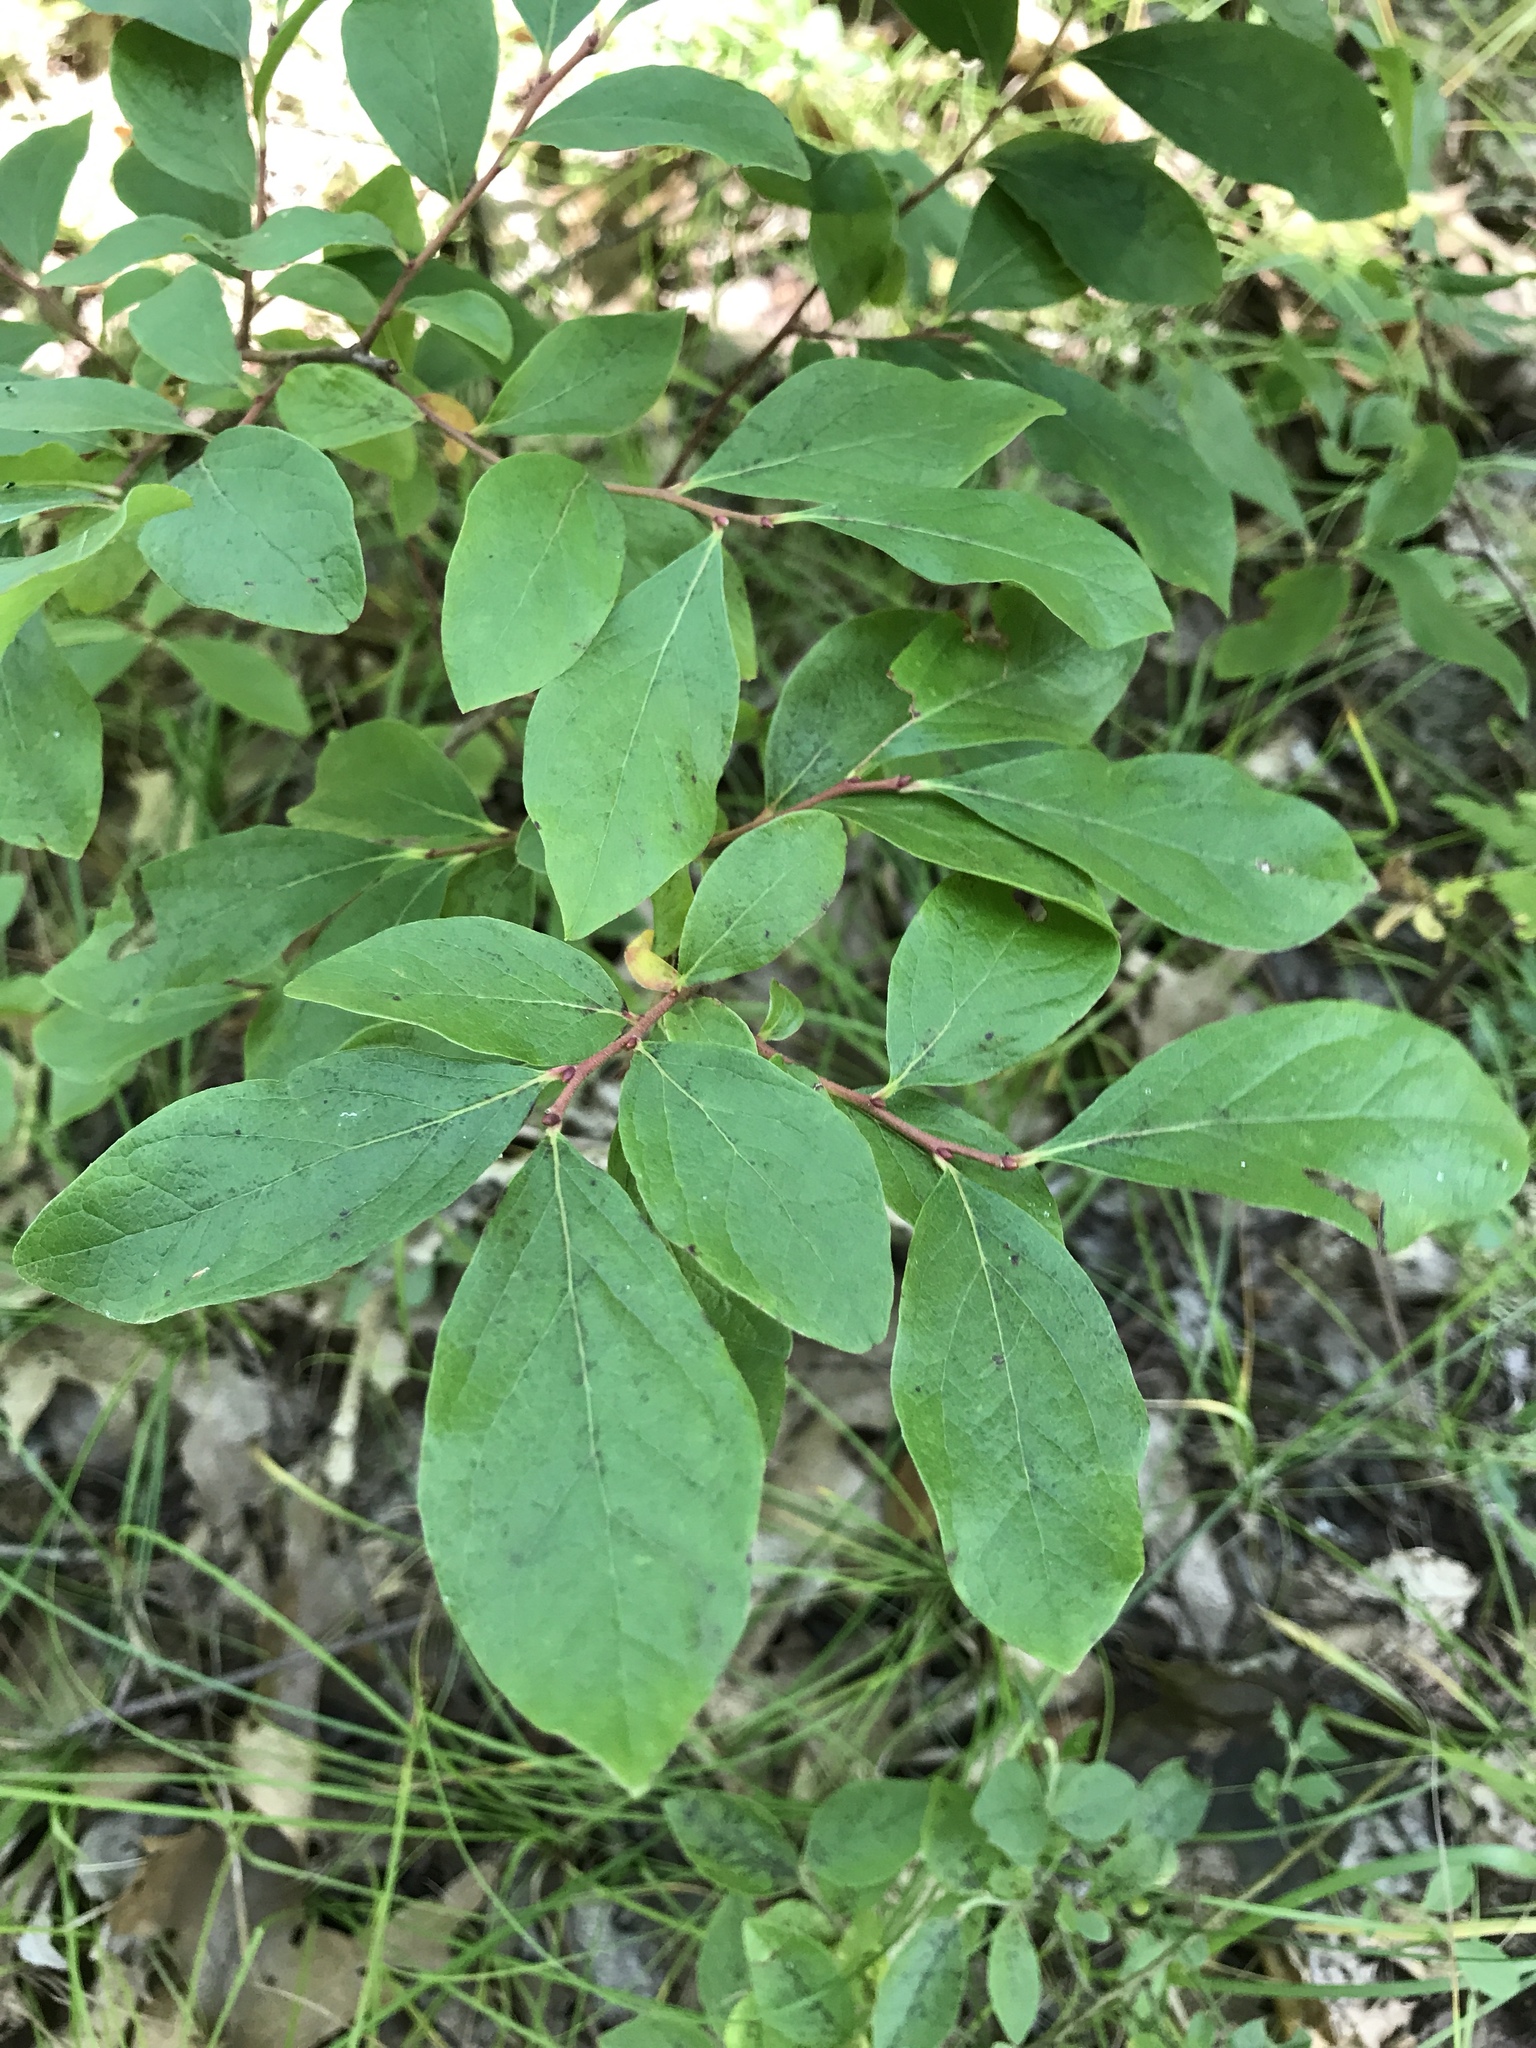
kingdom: Plantae
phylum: Tracheophyta
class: Magnoliopsida
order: Ericales
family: Ericaceae
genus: Gaylussacia
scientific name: Gaylussacia baccata
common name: Black huckleberry
